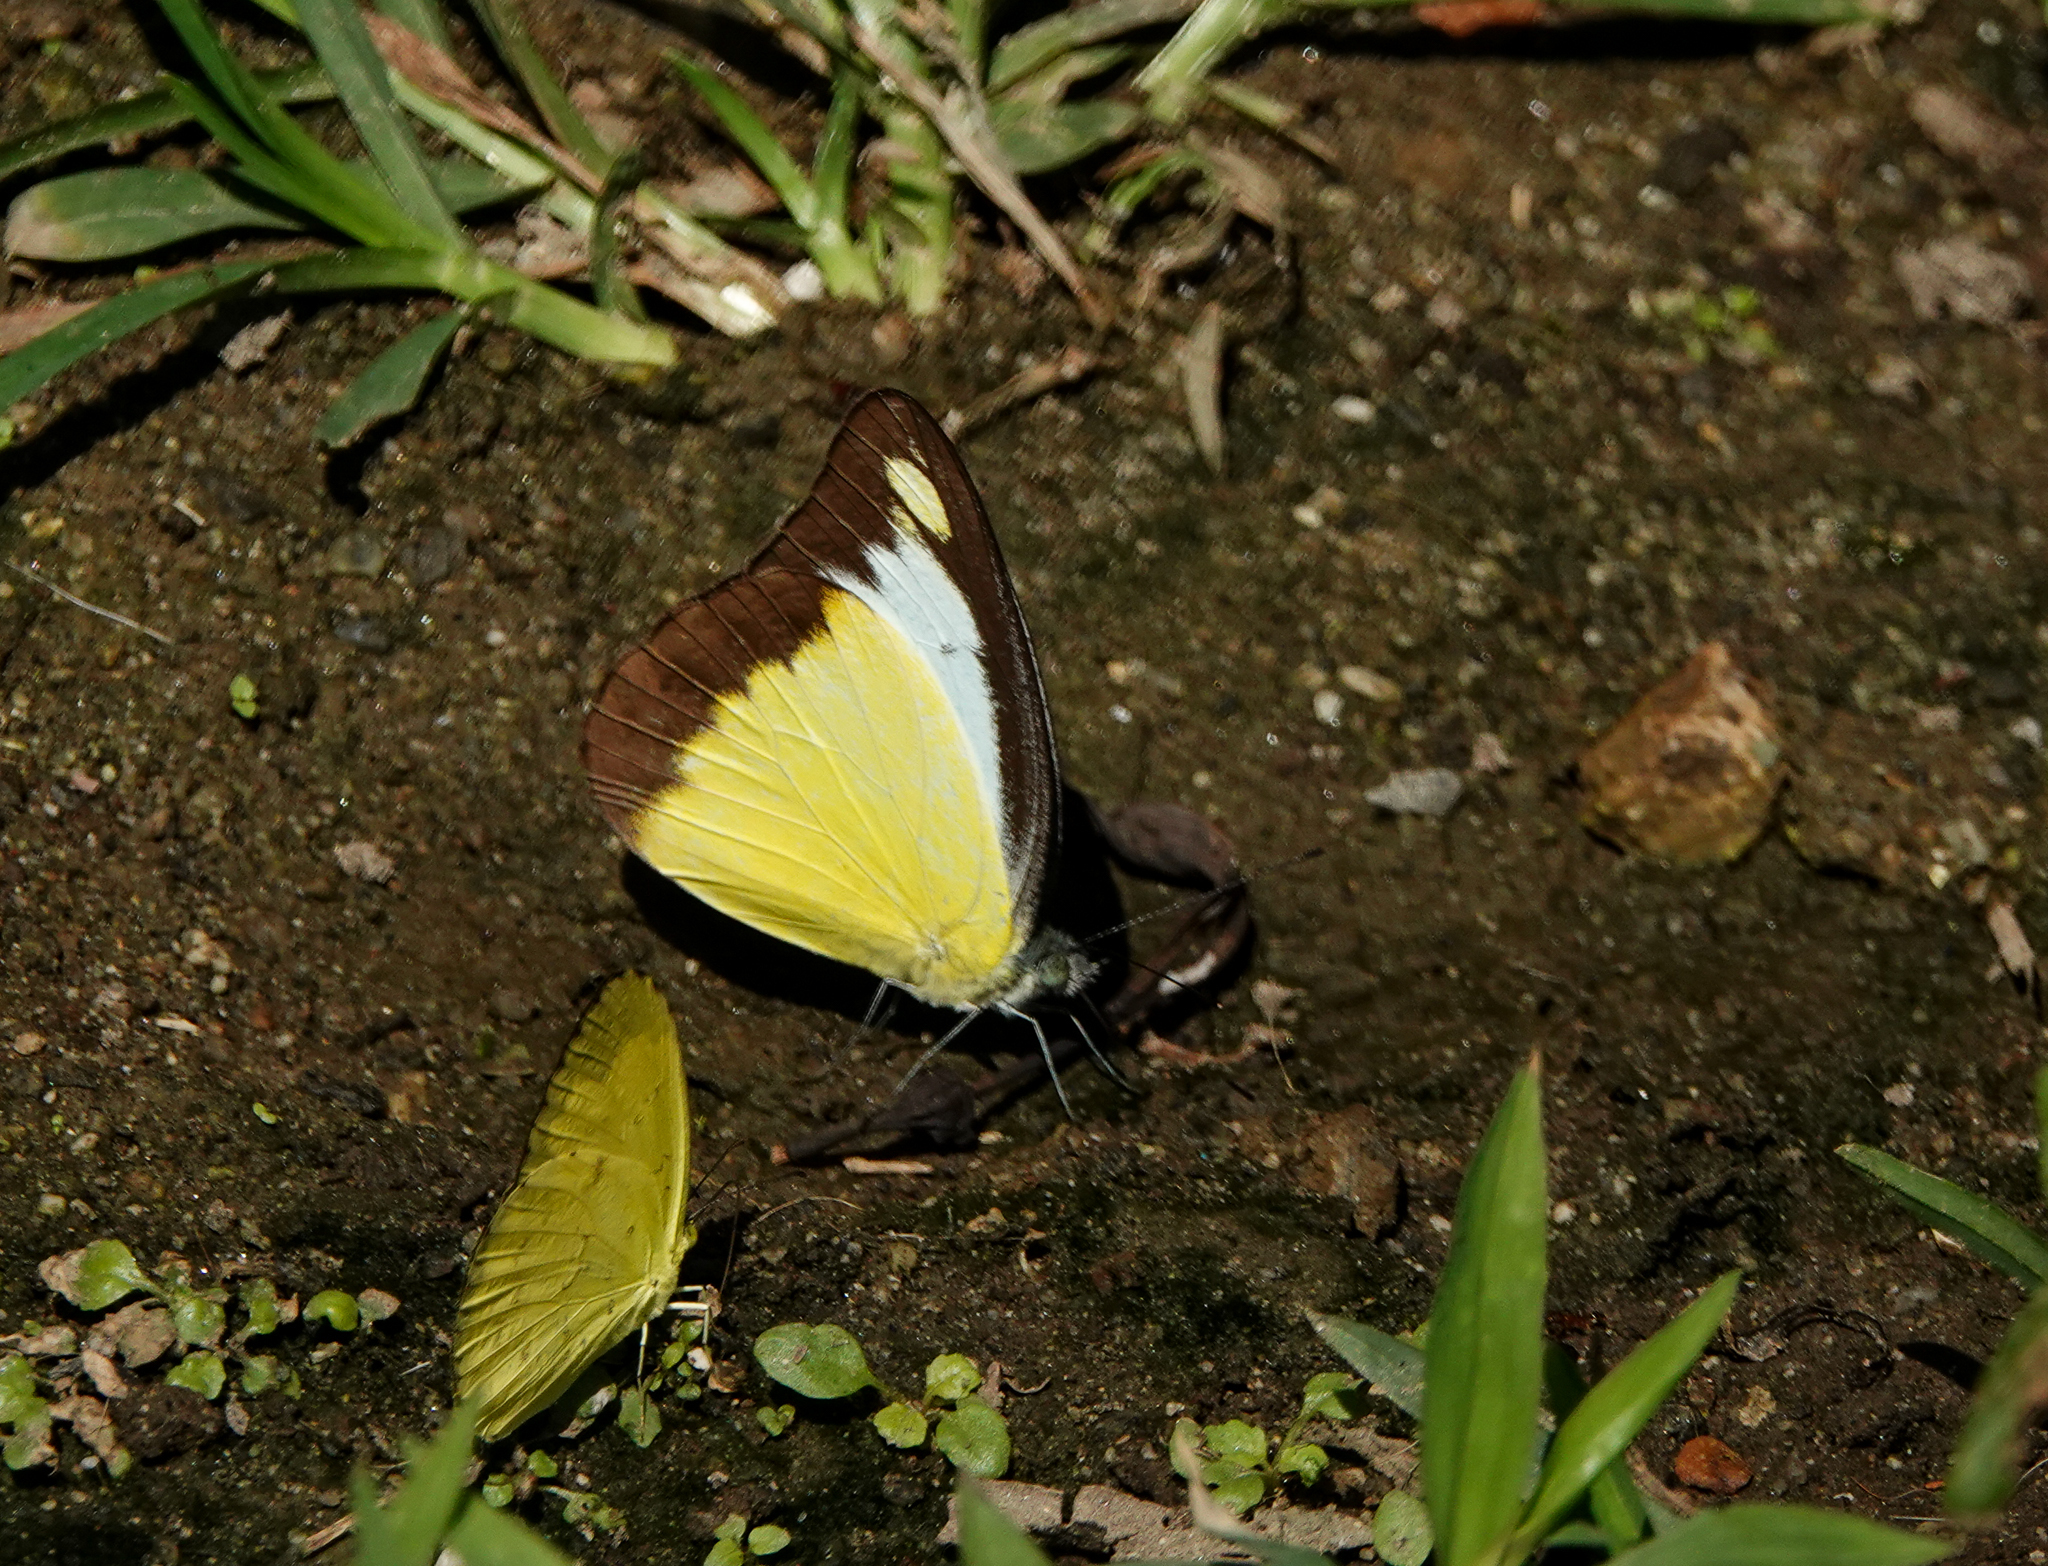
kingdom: Animalia
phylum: Arthropoda
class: Insecta
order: Lepidoptera
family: Pieridae
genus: Appias
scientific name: Appias lyncida
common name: Chocolate albatross
